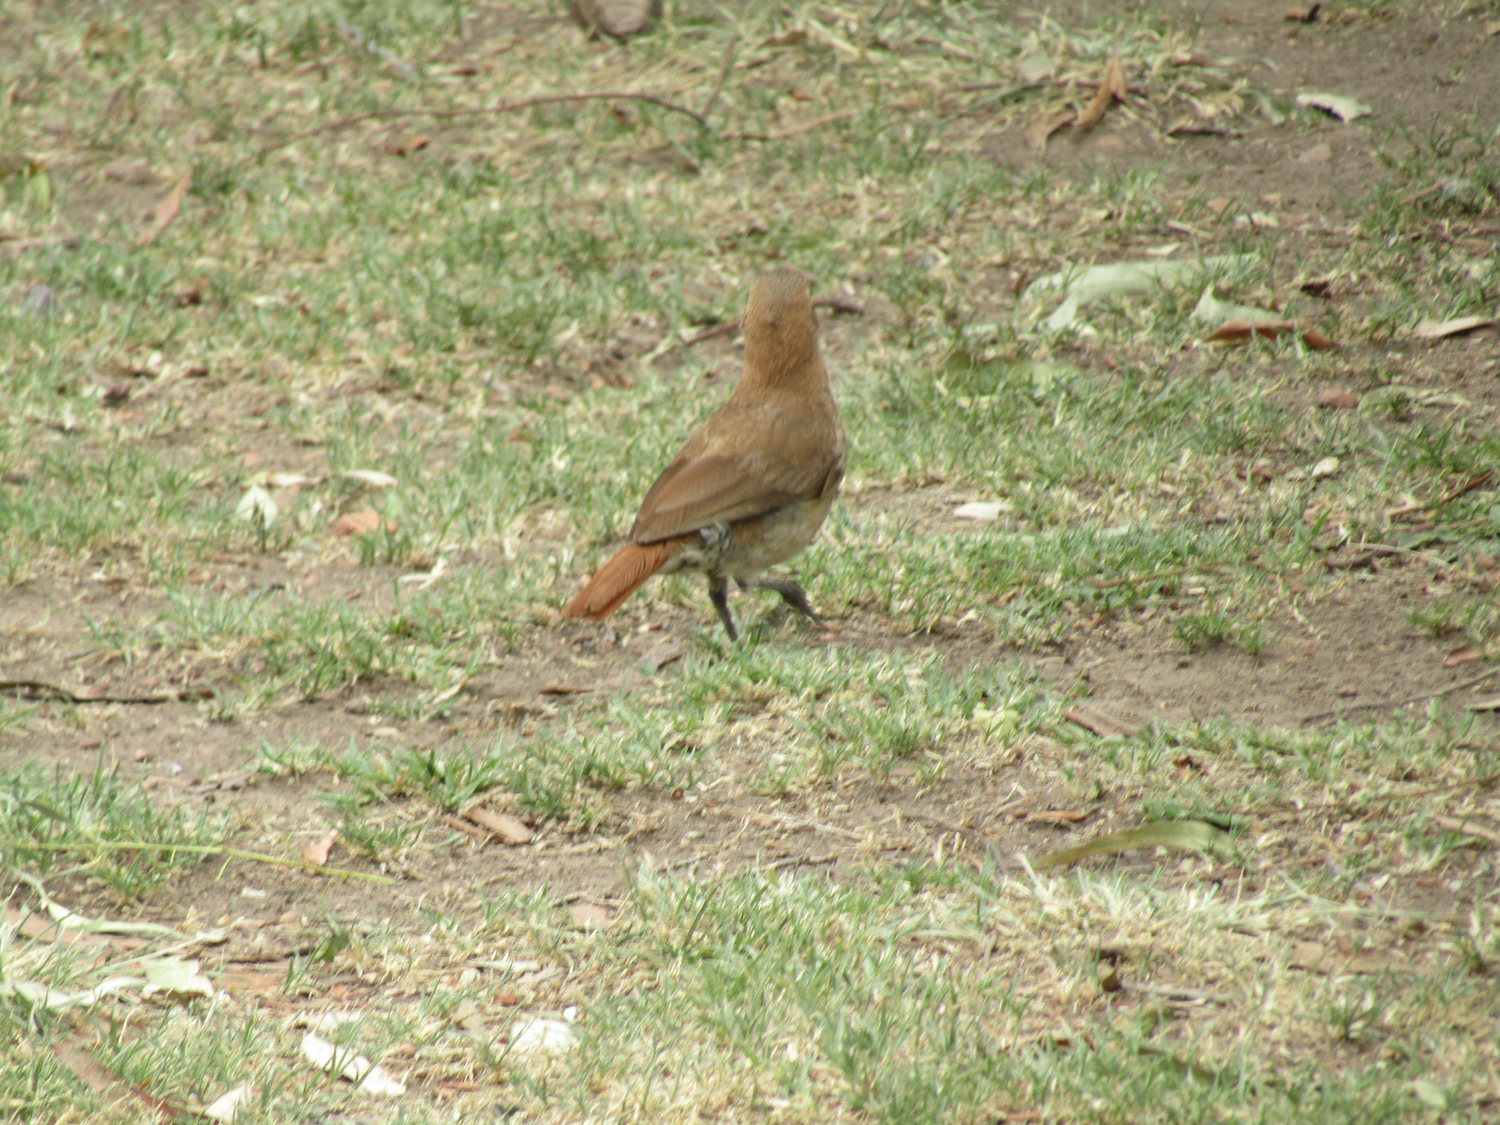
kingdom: Animalia
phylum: Chordata
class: Aves
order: Passeriformes
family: Furnariidae
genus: Furnarius
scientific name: Furnarius rufus
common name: Rufous hornero
